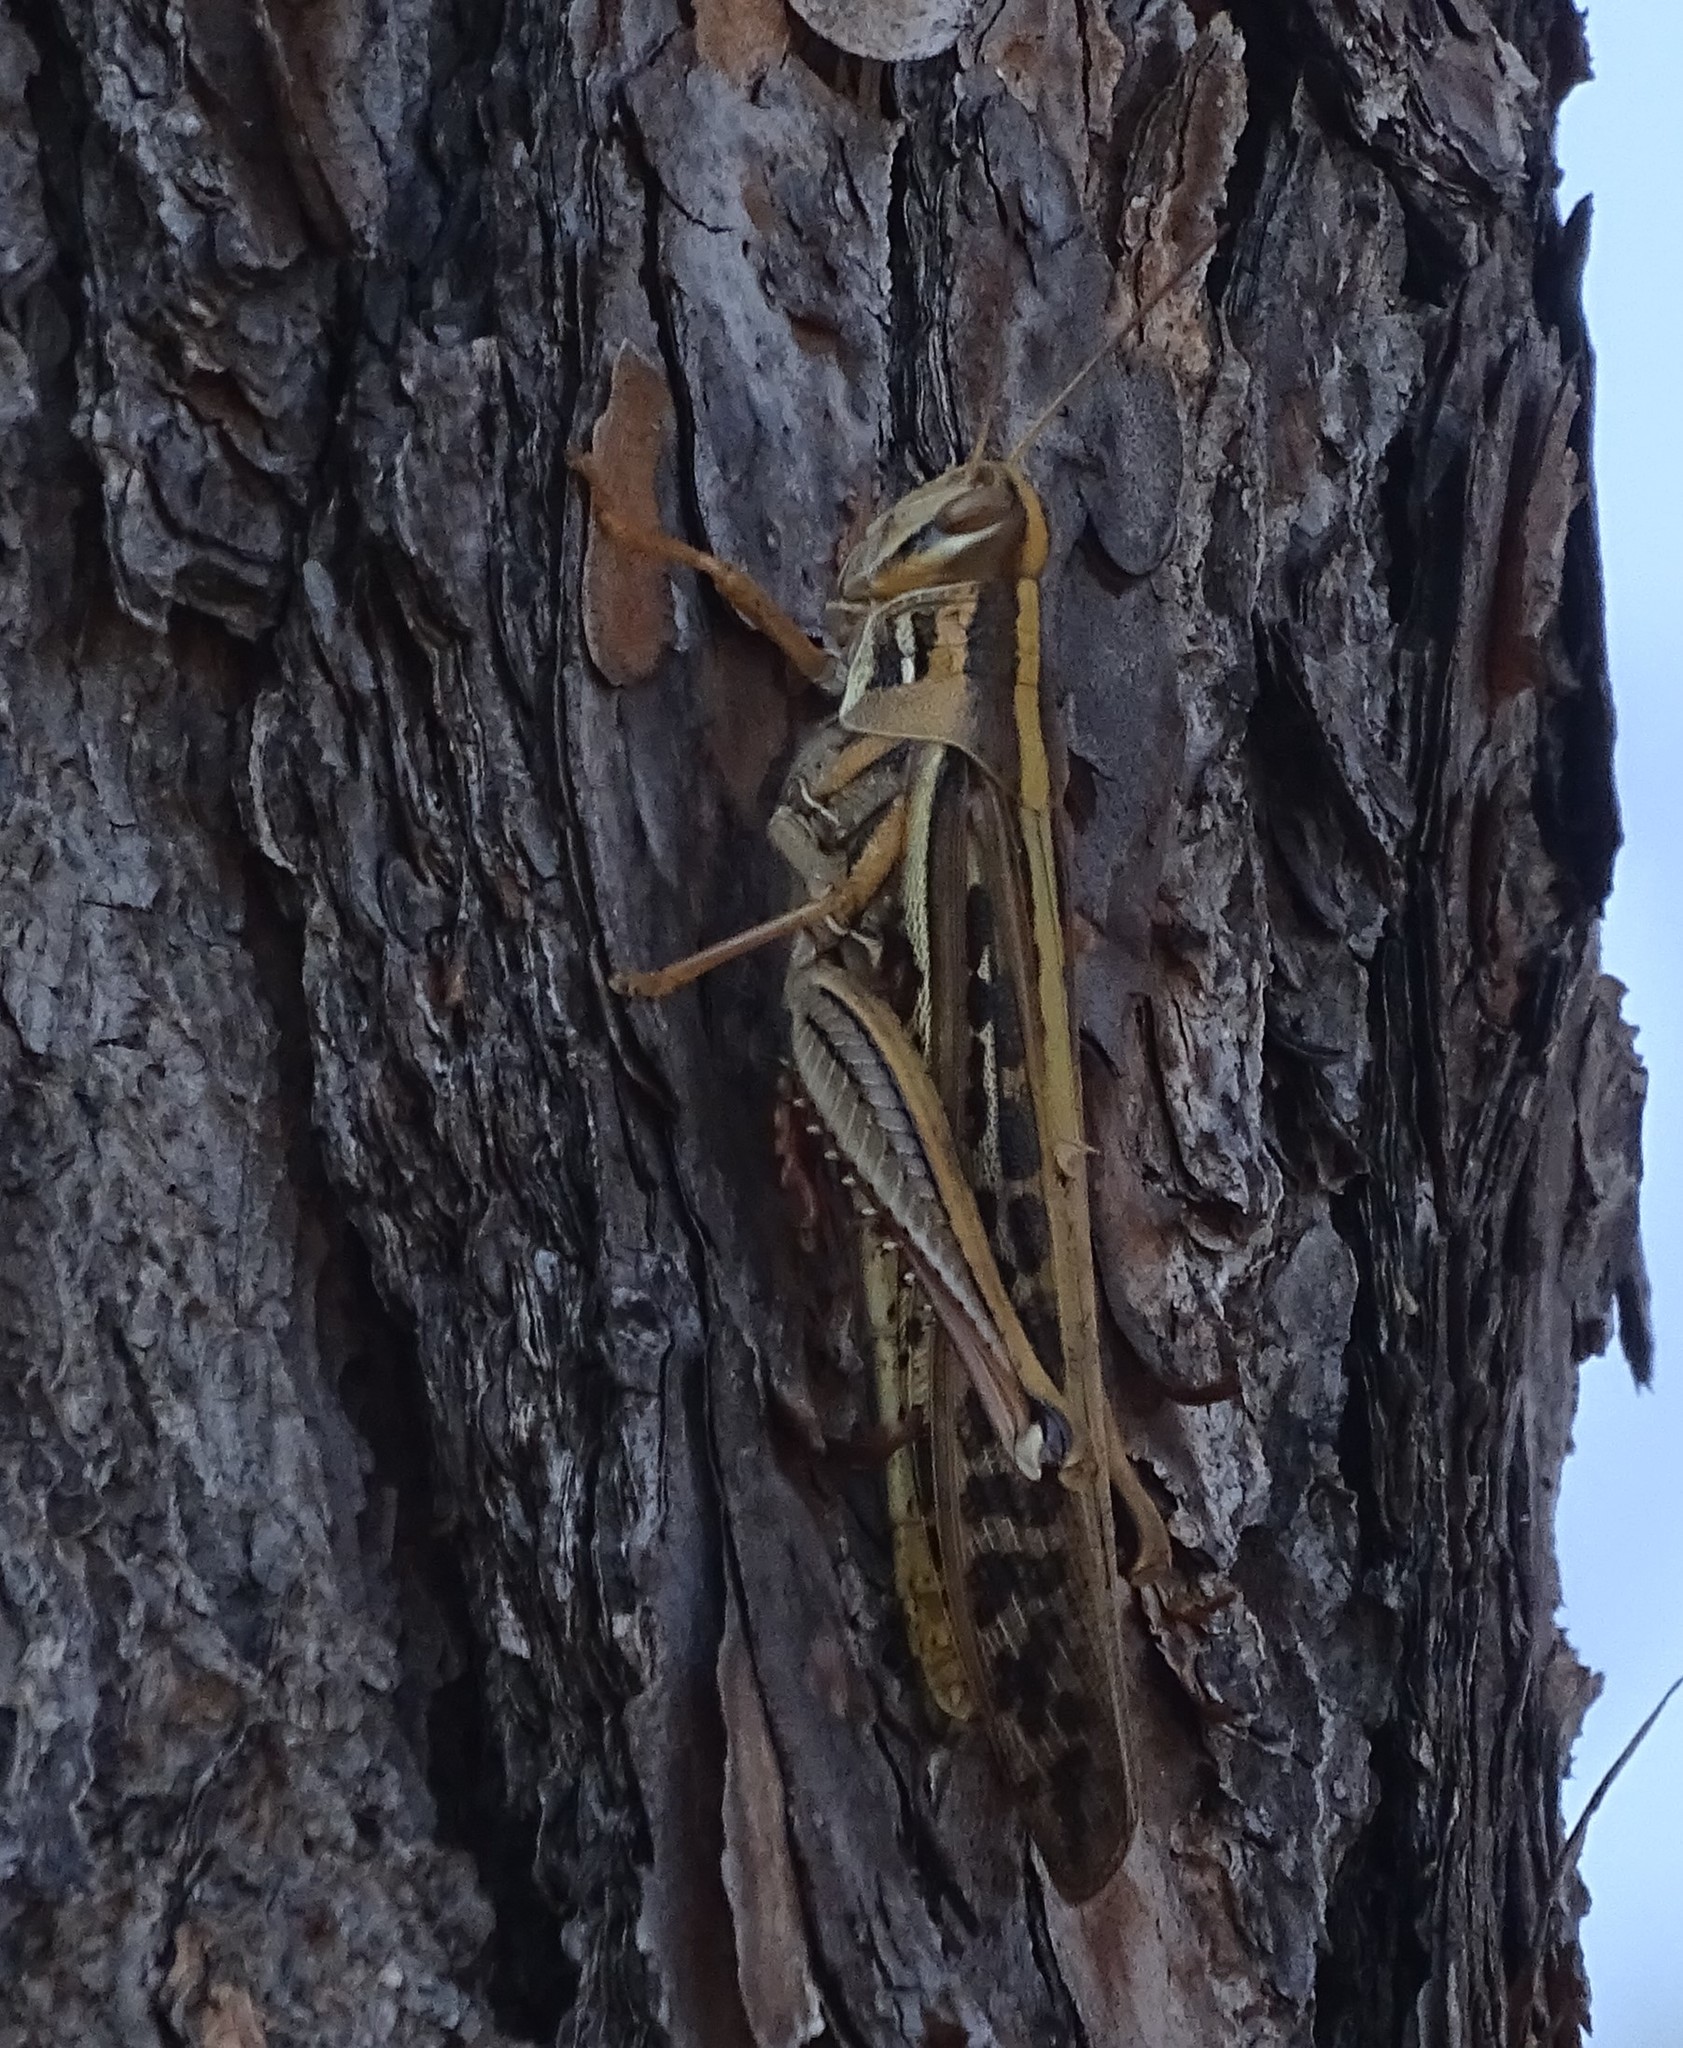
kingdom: Animalia
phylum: Arthropoda
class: Insecta
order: Orthoptera
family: Acrididae
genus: Schistocerca
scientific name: Schistocerca americana
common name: American bird locust
